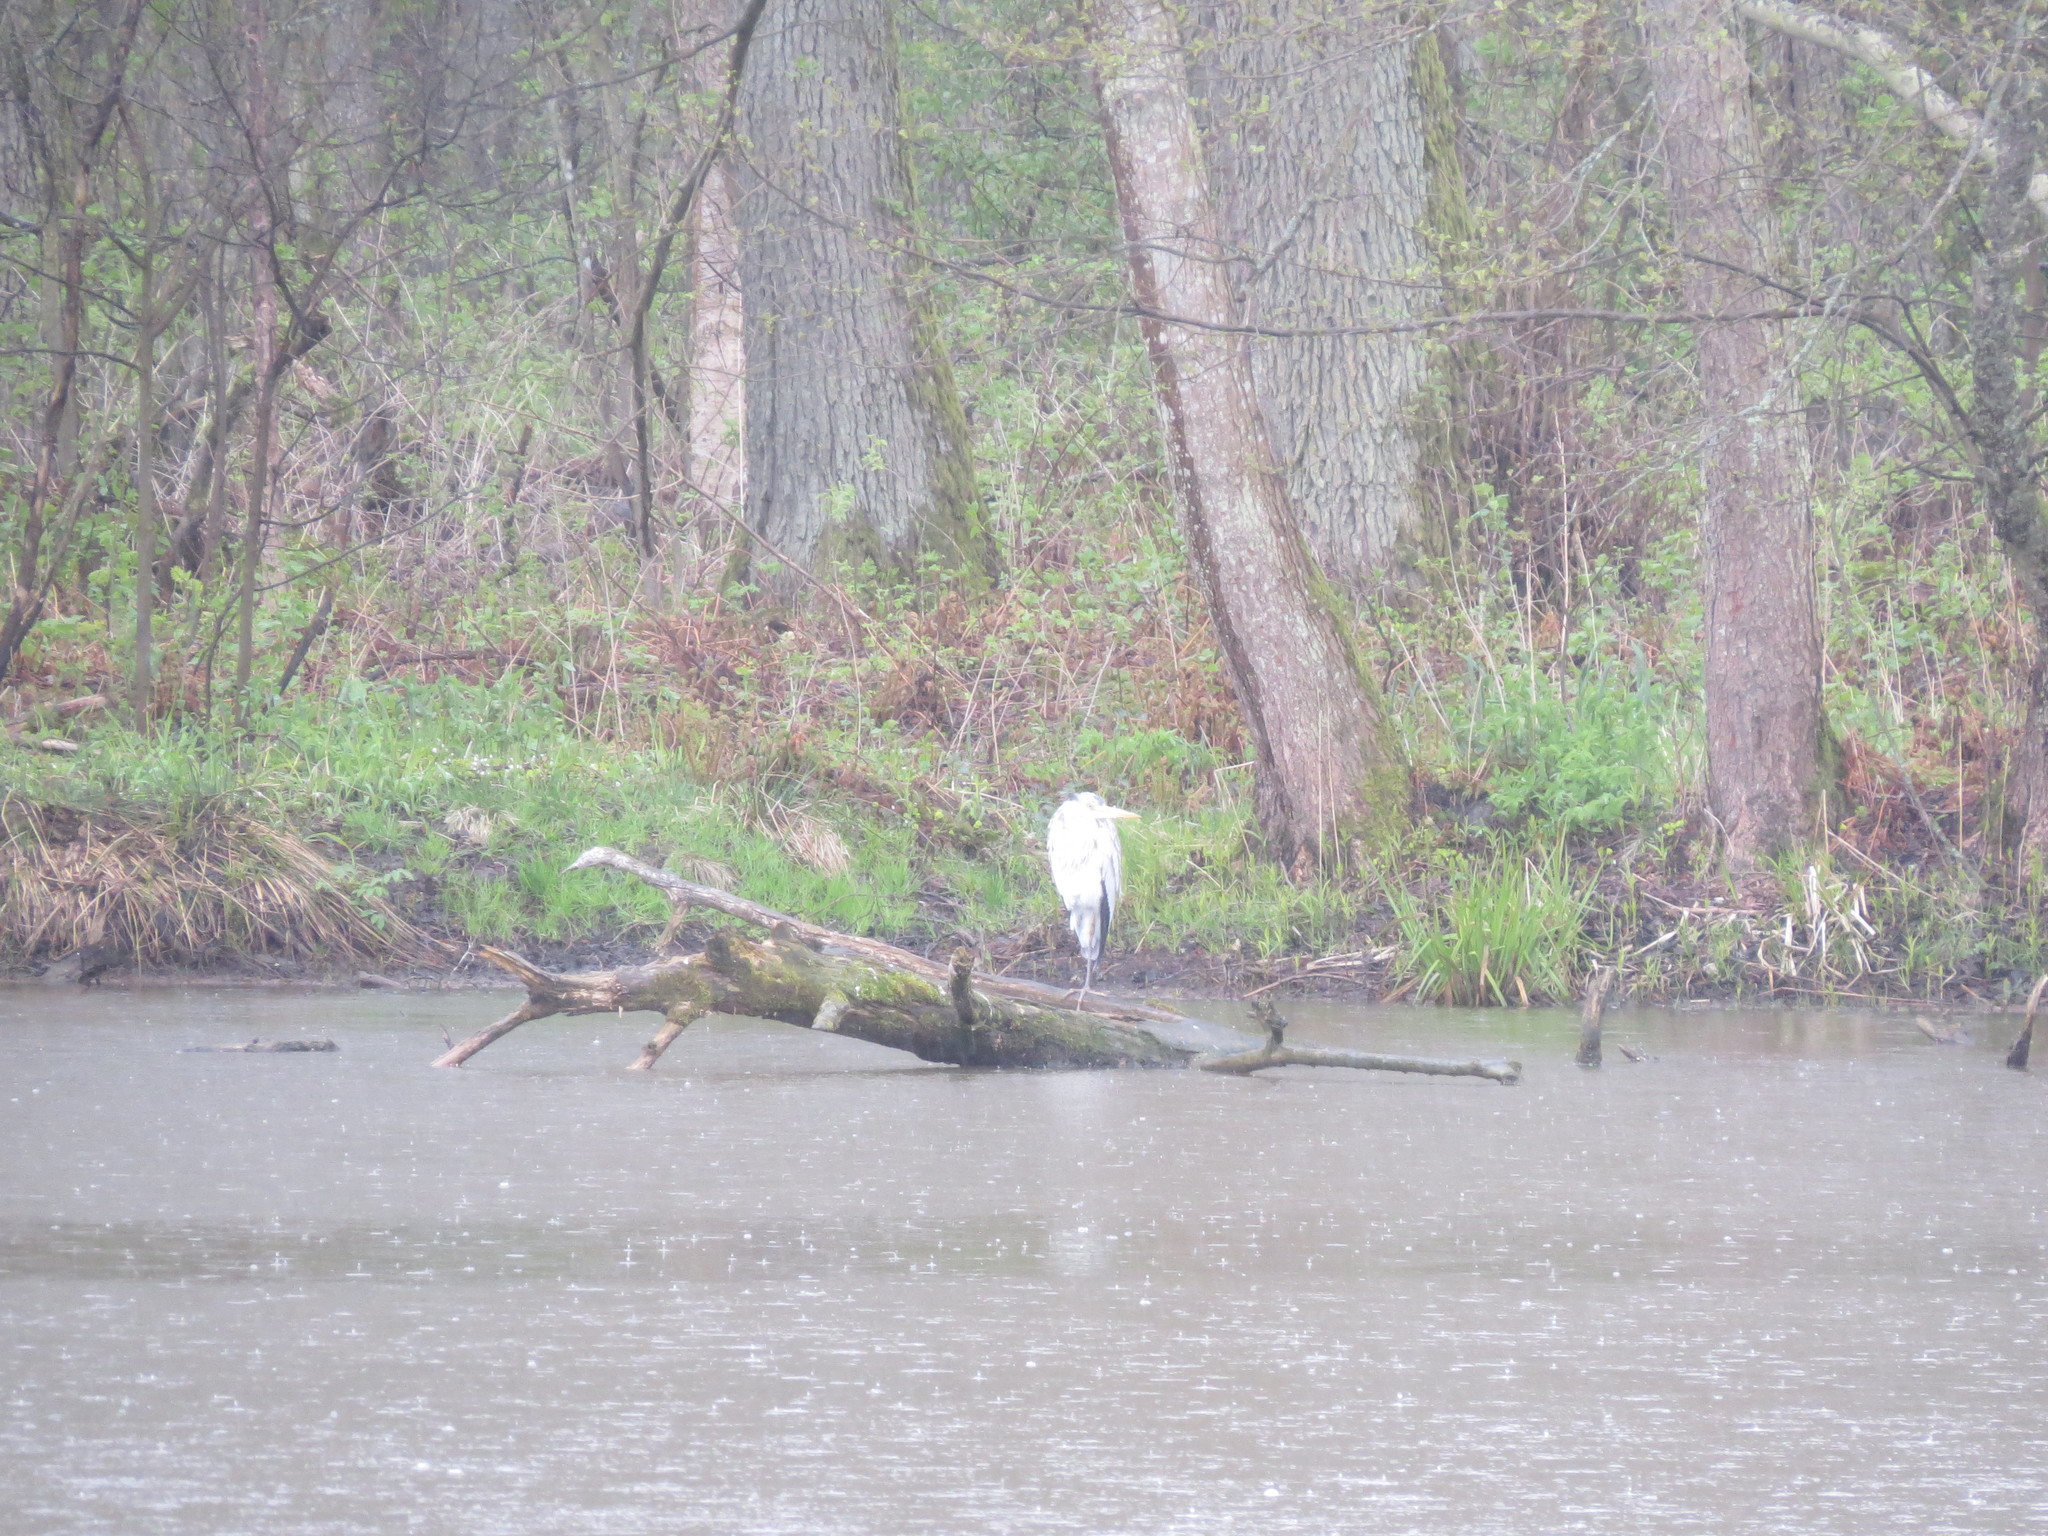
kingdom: Animalia
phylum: Chordata
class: Aves
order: Pelecaniformes
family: Ardeidae
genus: Ardea
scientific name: Ardea cinerea
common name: Grey heron
